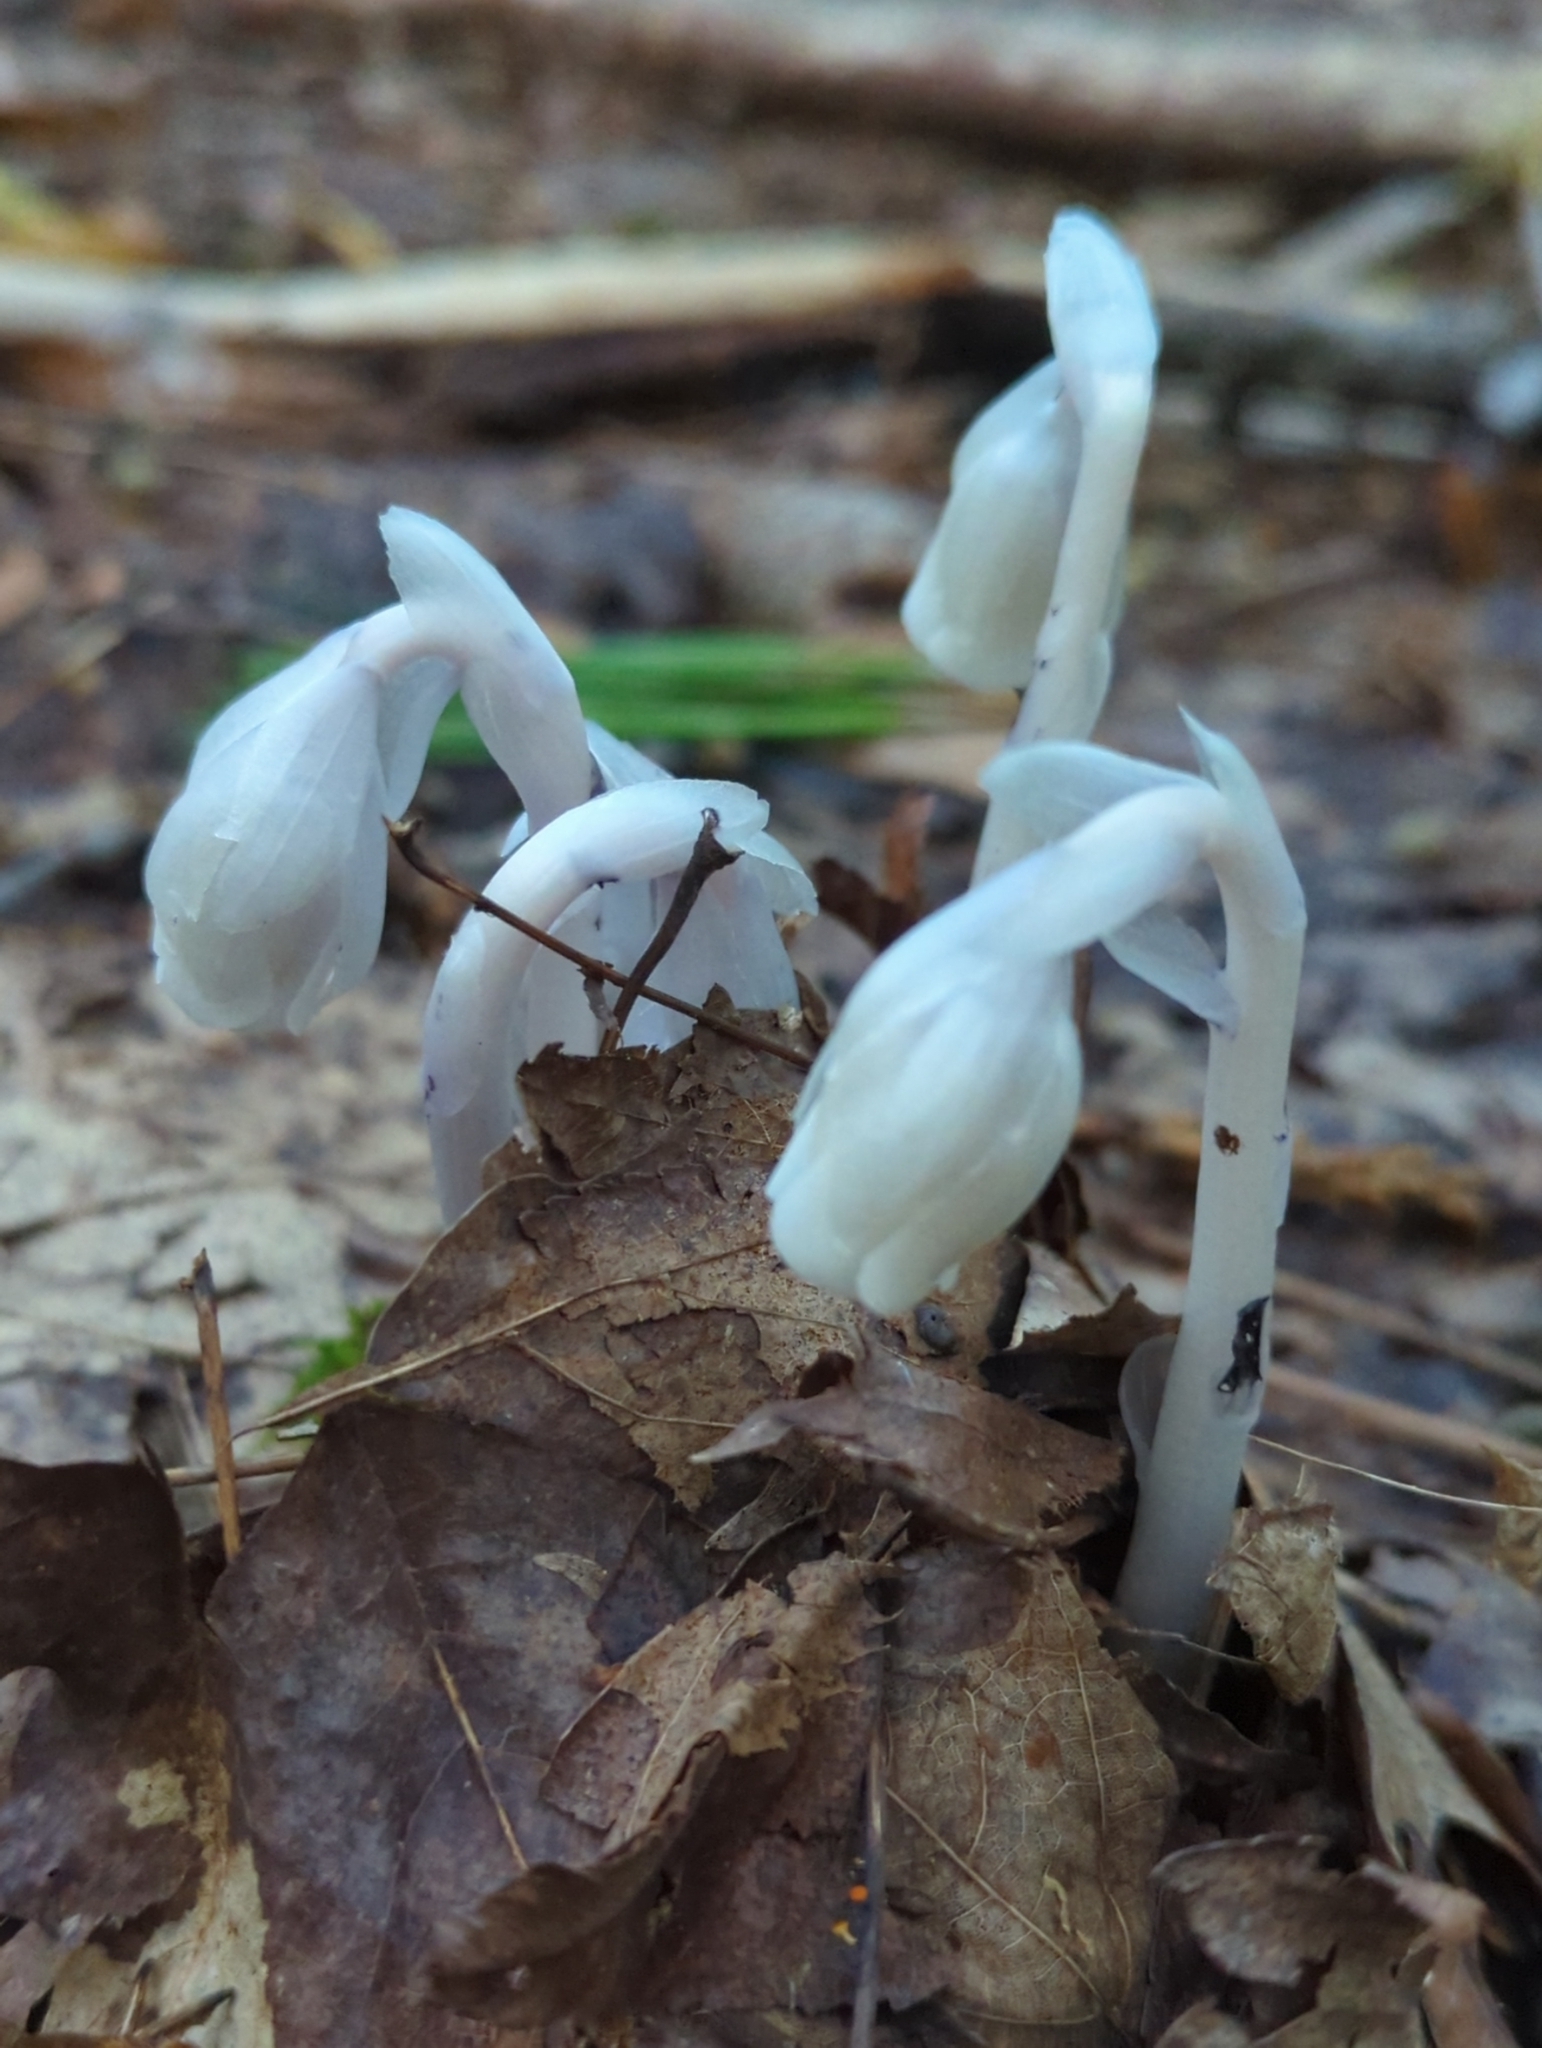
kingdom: Plantae
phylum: Tracheophyta
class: Magnoliopsida
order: Ericales
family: Ericaceae
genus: Monotropa
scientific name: Monotropa uniflora
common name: Convulsion root
